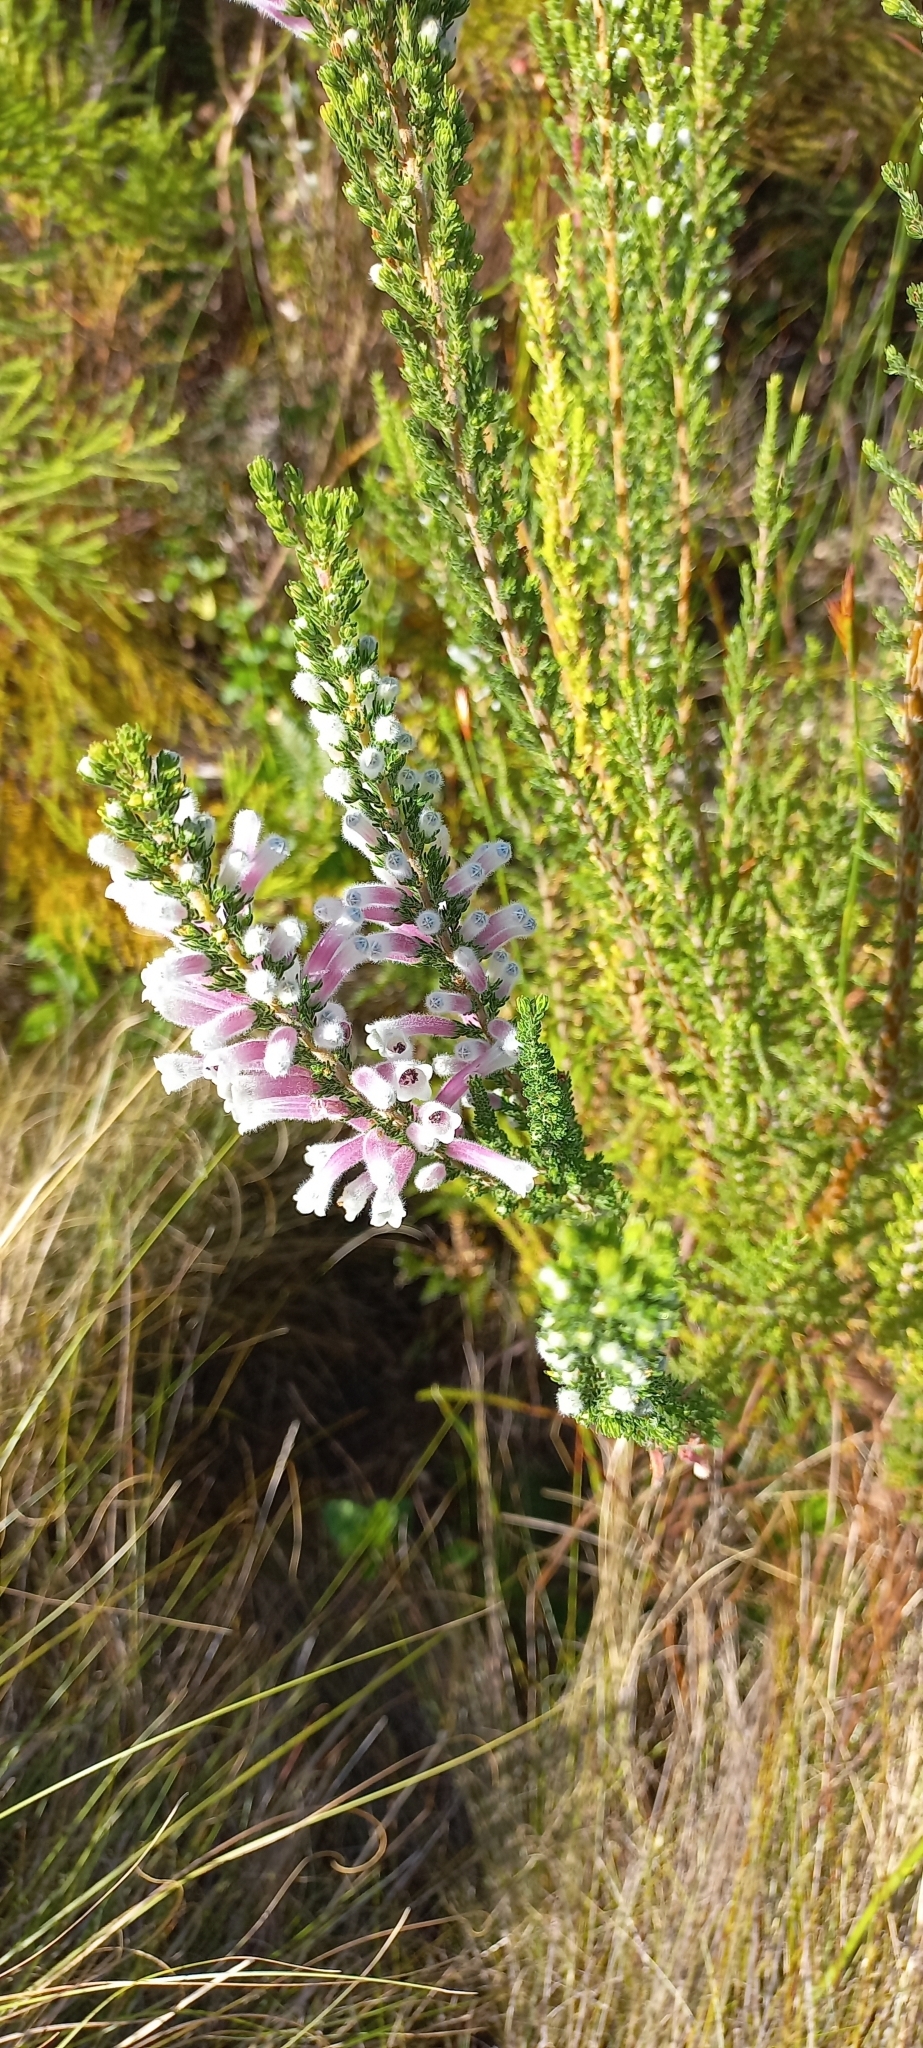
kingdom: Plantae
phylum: Tracheophyta
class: Magnoliopsida
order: Ericales
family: Ericaceae
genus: Erica
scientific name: Erica perspicua
